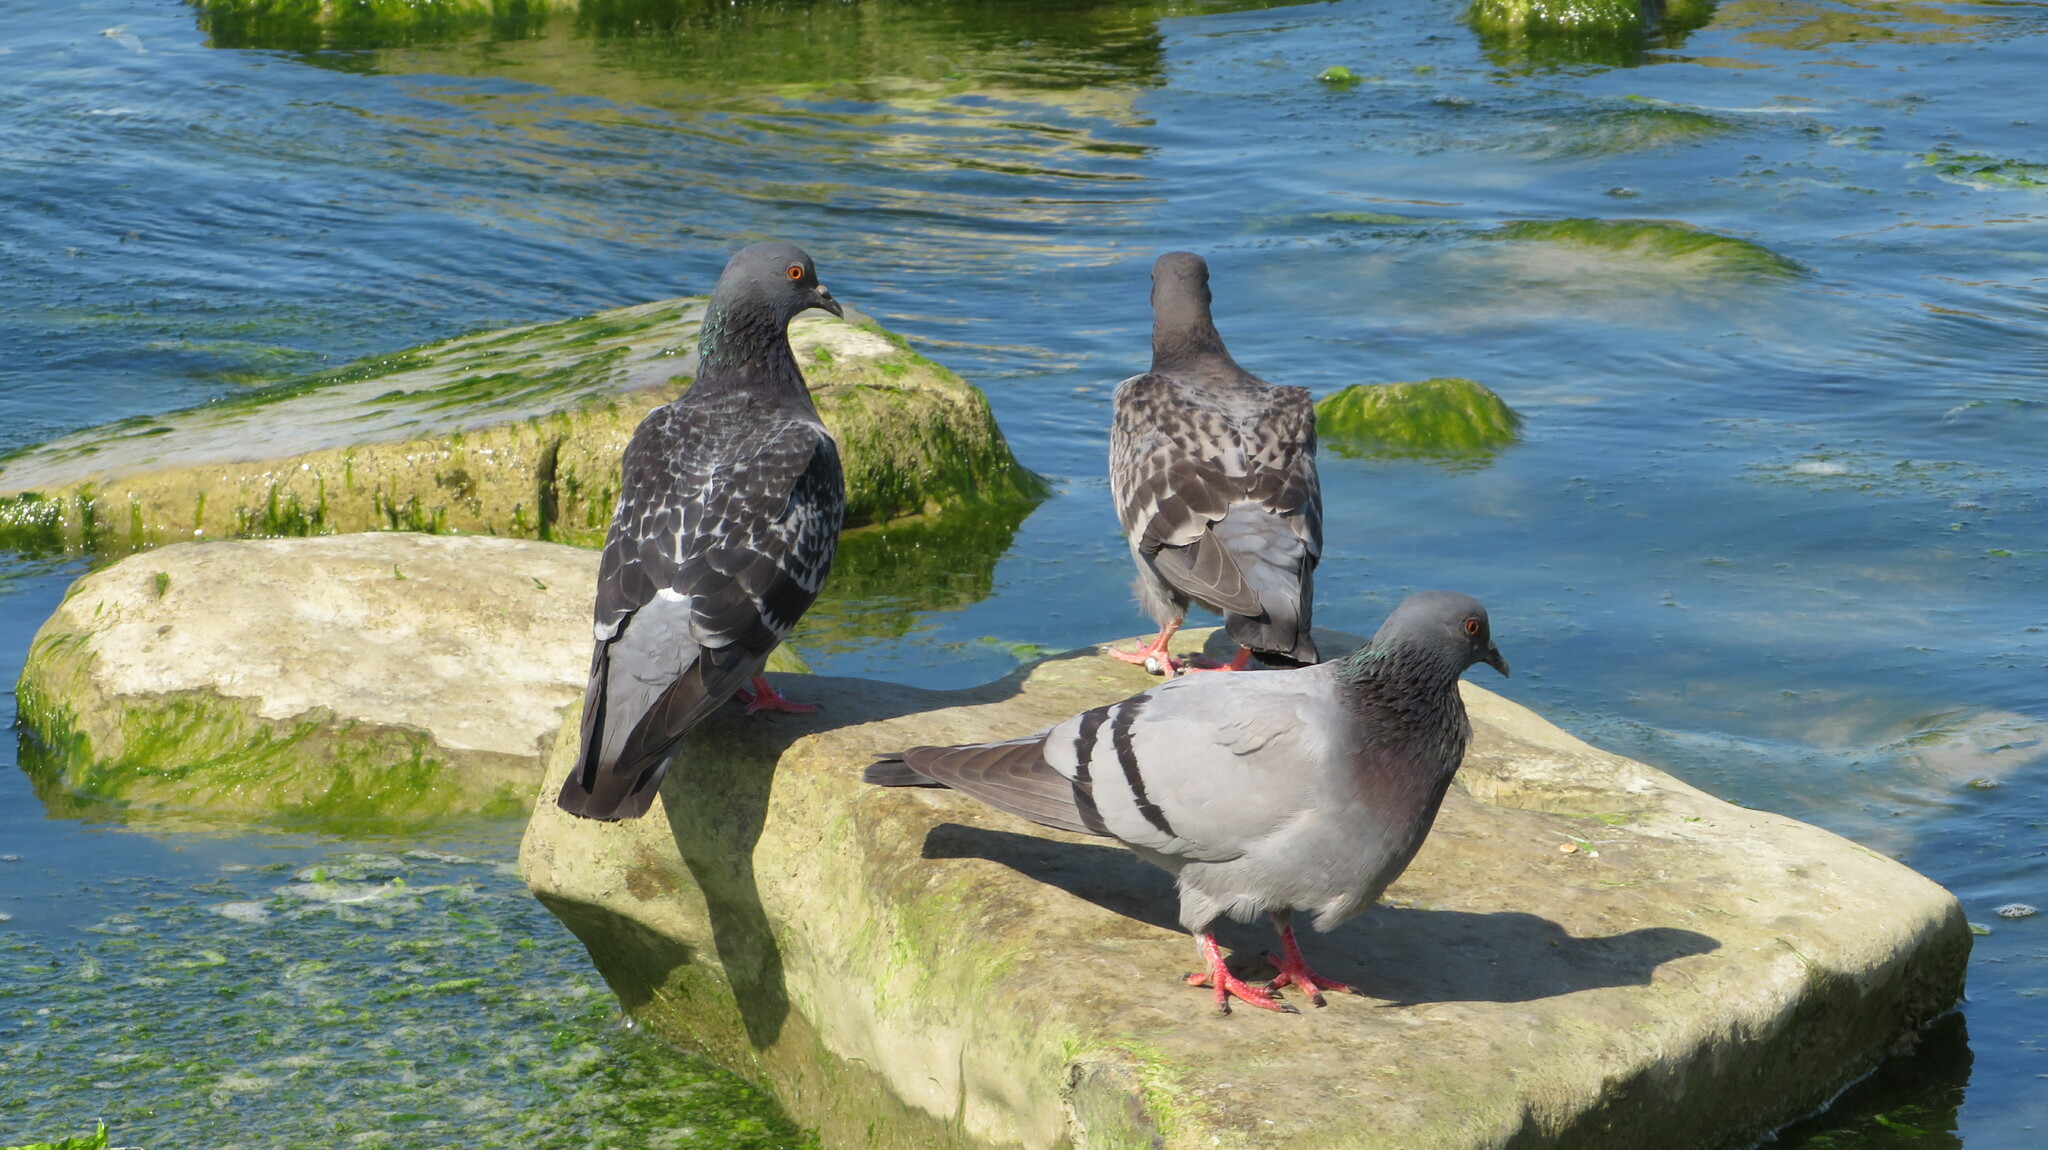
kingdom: Animalia
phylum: Chordata
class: Aves
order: Columbiformes
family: Columbidae
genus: Columba
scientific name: Columba livia
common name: Rock pigeon
